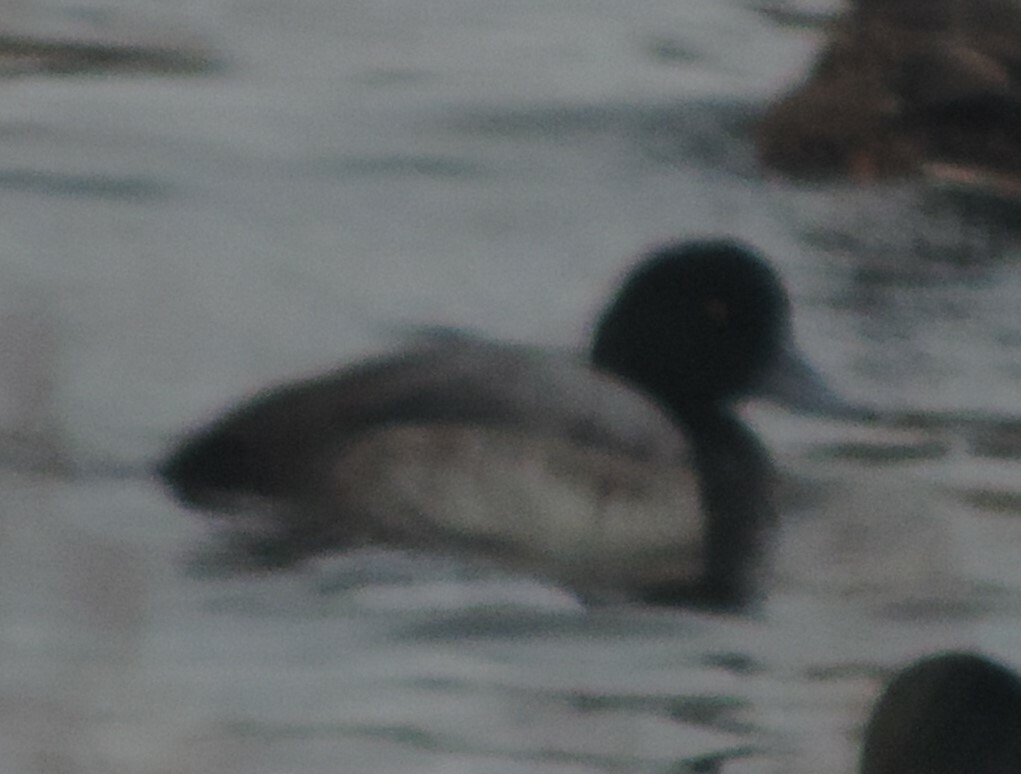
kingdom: Animalia
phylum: Chordata
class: Aves
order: Anseriformes
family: Anatidae
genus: Aythya
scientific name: Aythya marila
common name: Greater scaup
